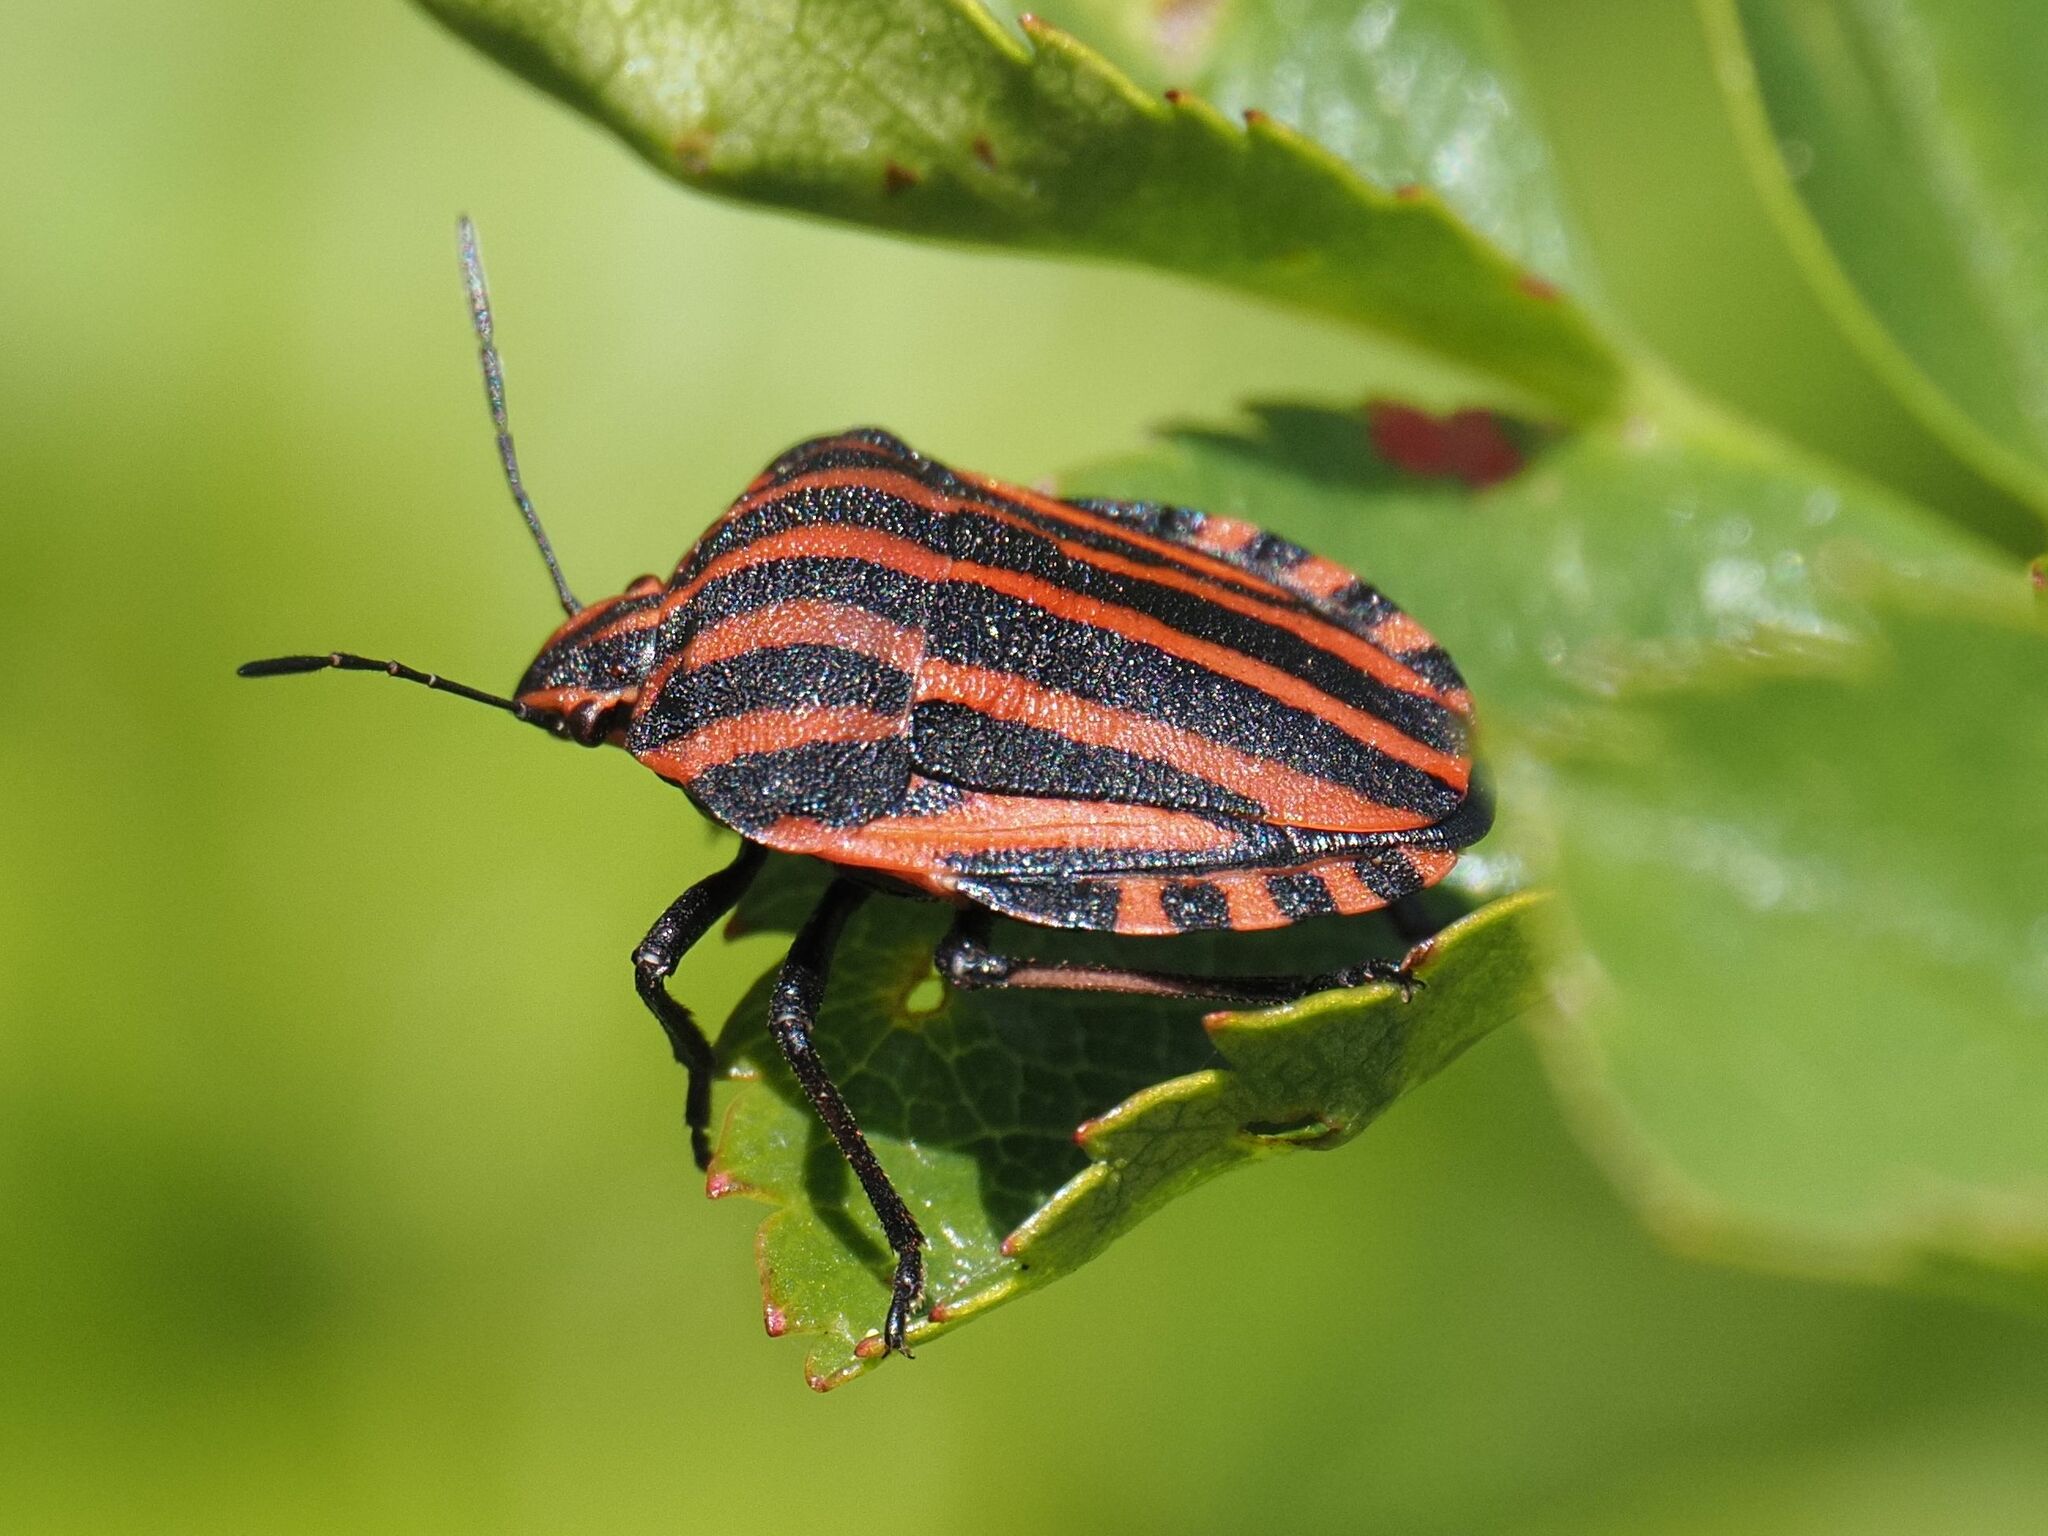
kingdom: Animalia
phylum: Arthropoda
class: Insecta
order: Hemiptera
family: Pentatomidae
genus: Graphosoma
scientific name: Graphosoma italicum
